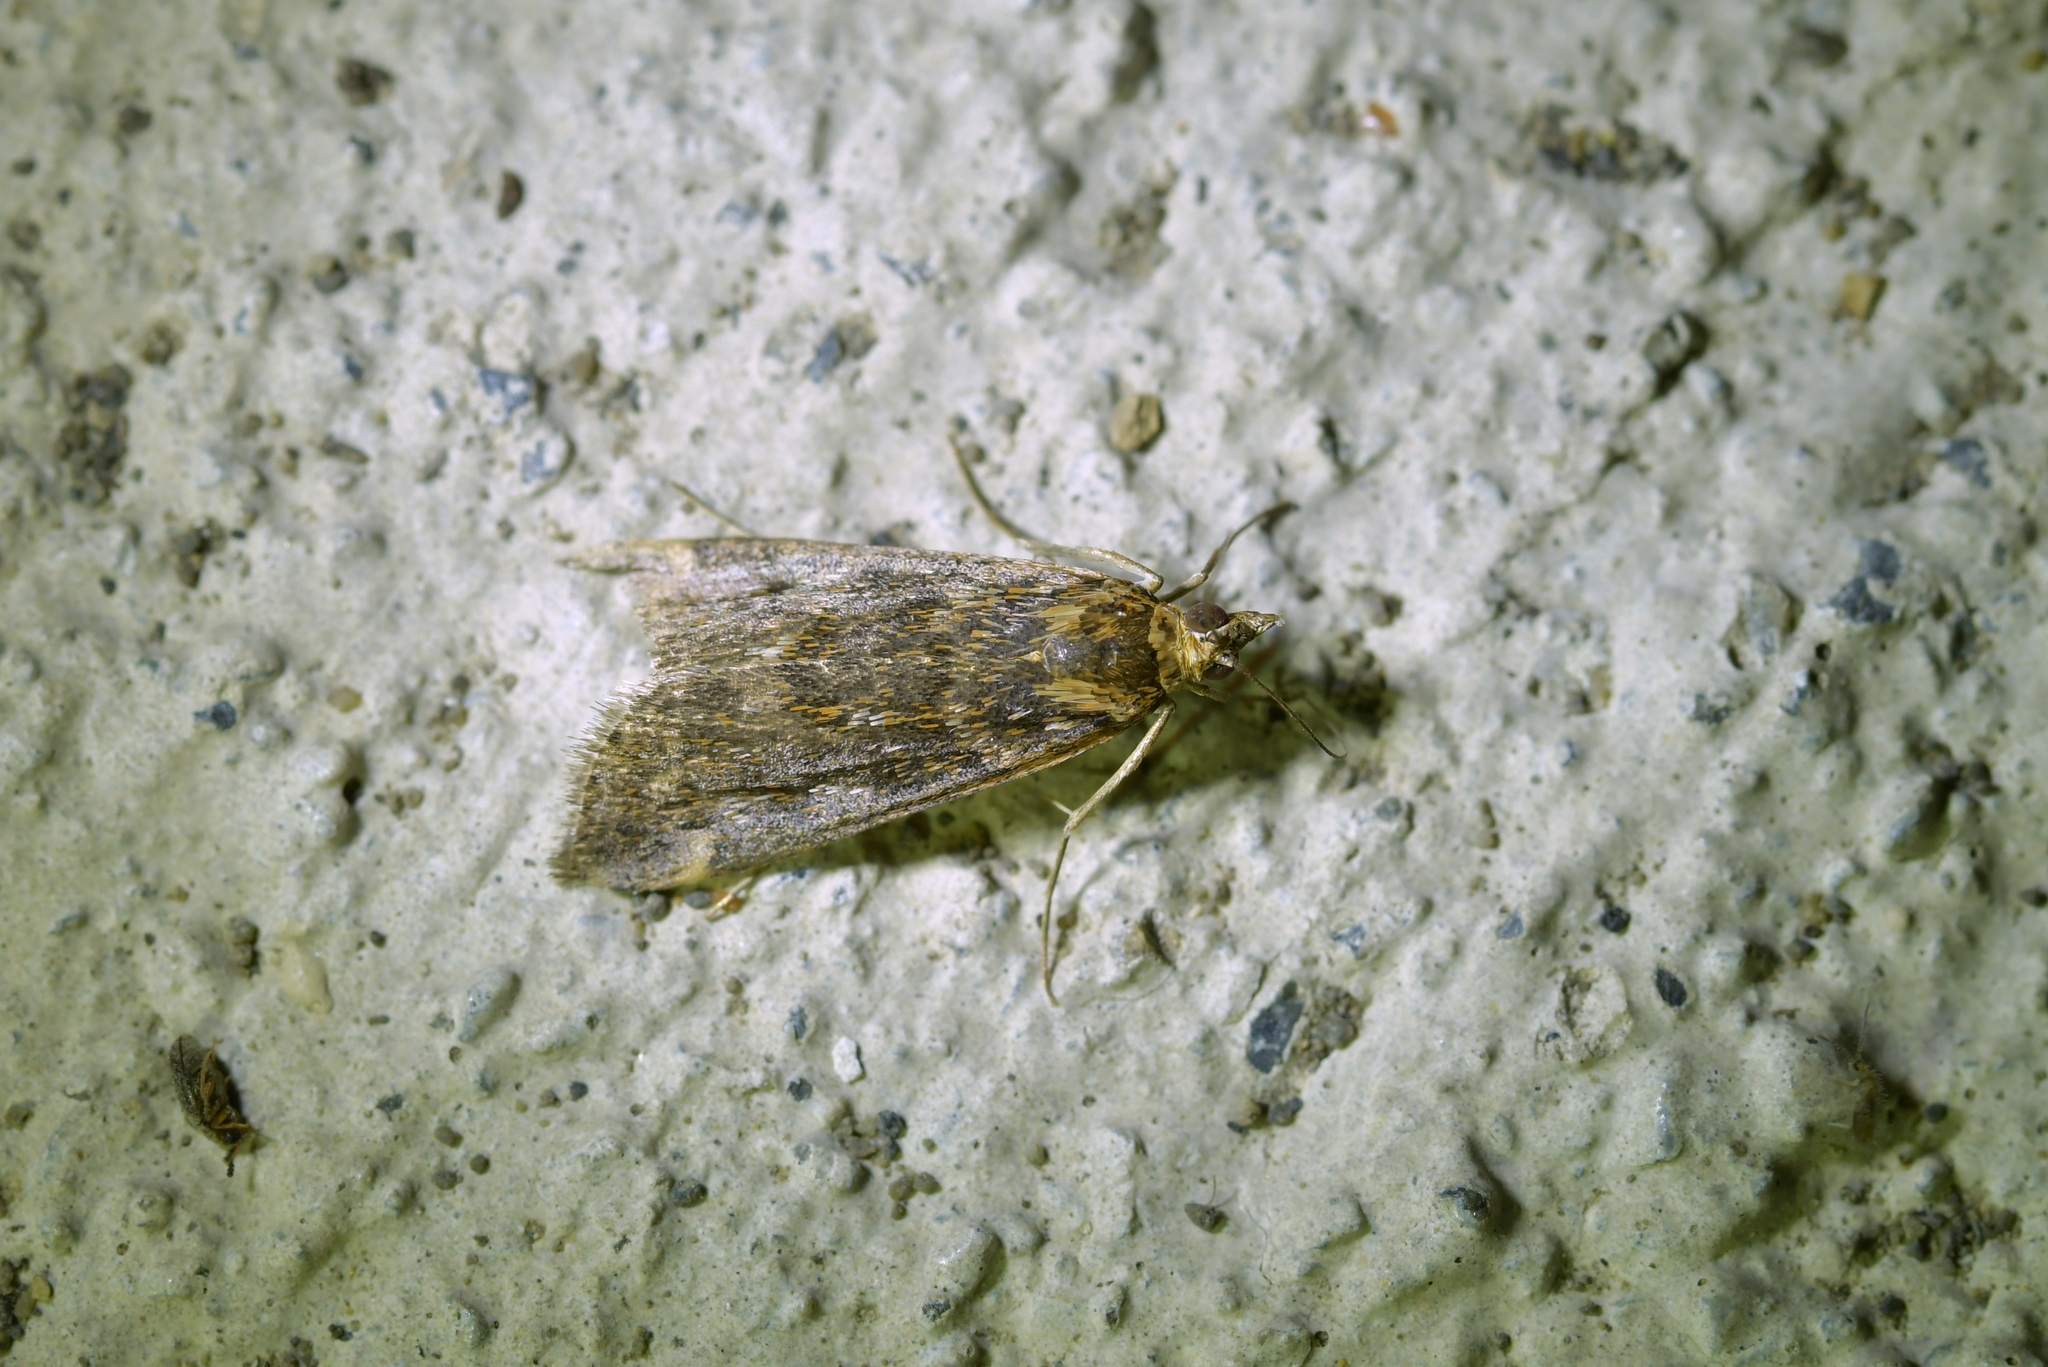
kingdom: Animalia
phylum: Arthropoda
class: Insecta
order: Lepidoptera
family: Crambidae
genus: Achyra
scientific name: Achyra affinitalis
